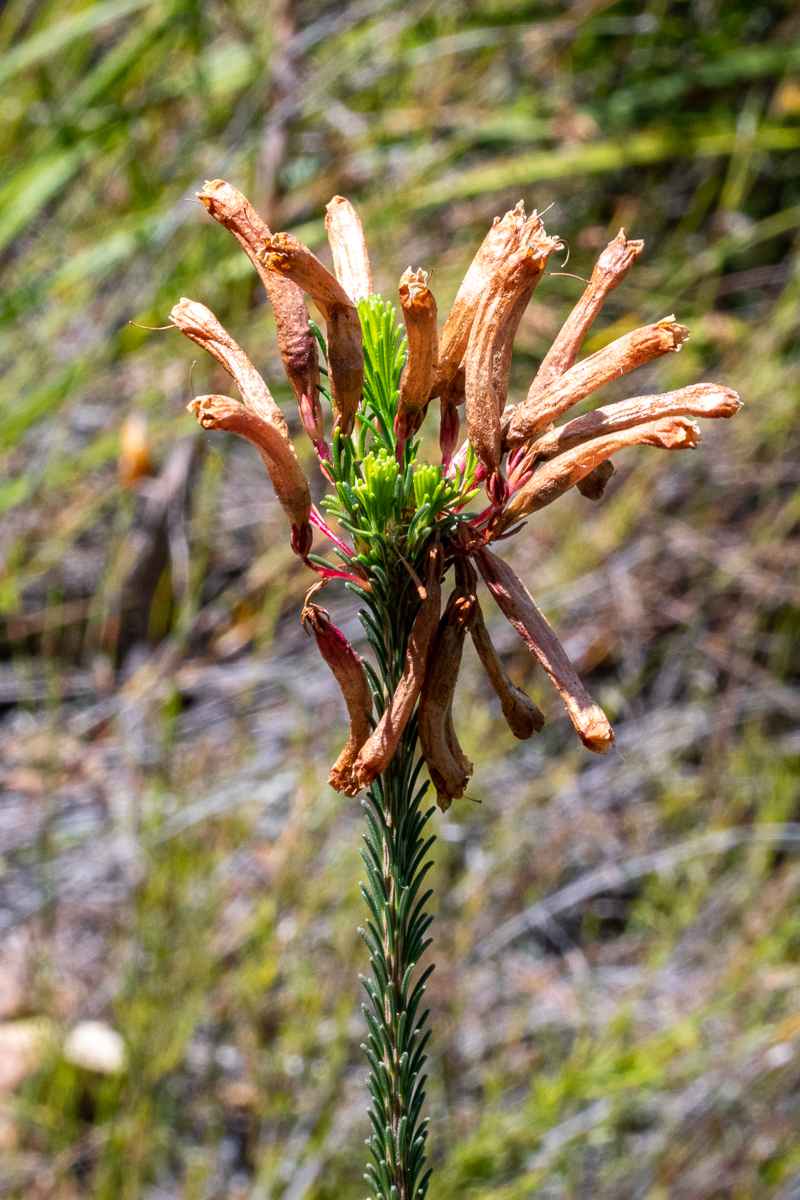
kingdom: Plantae
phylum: Tracheophyta
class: Magnoliopsida
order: Ericales
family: Ericaceae
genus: Erica
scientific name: Erica fascicularis
